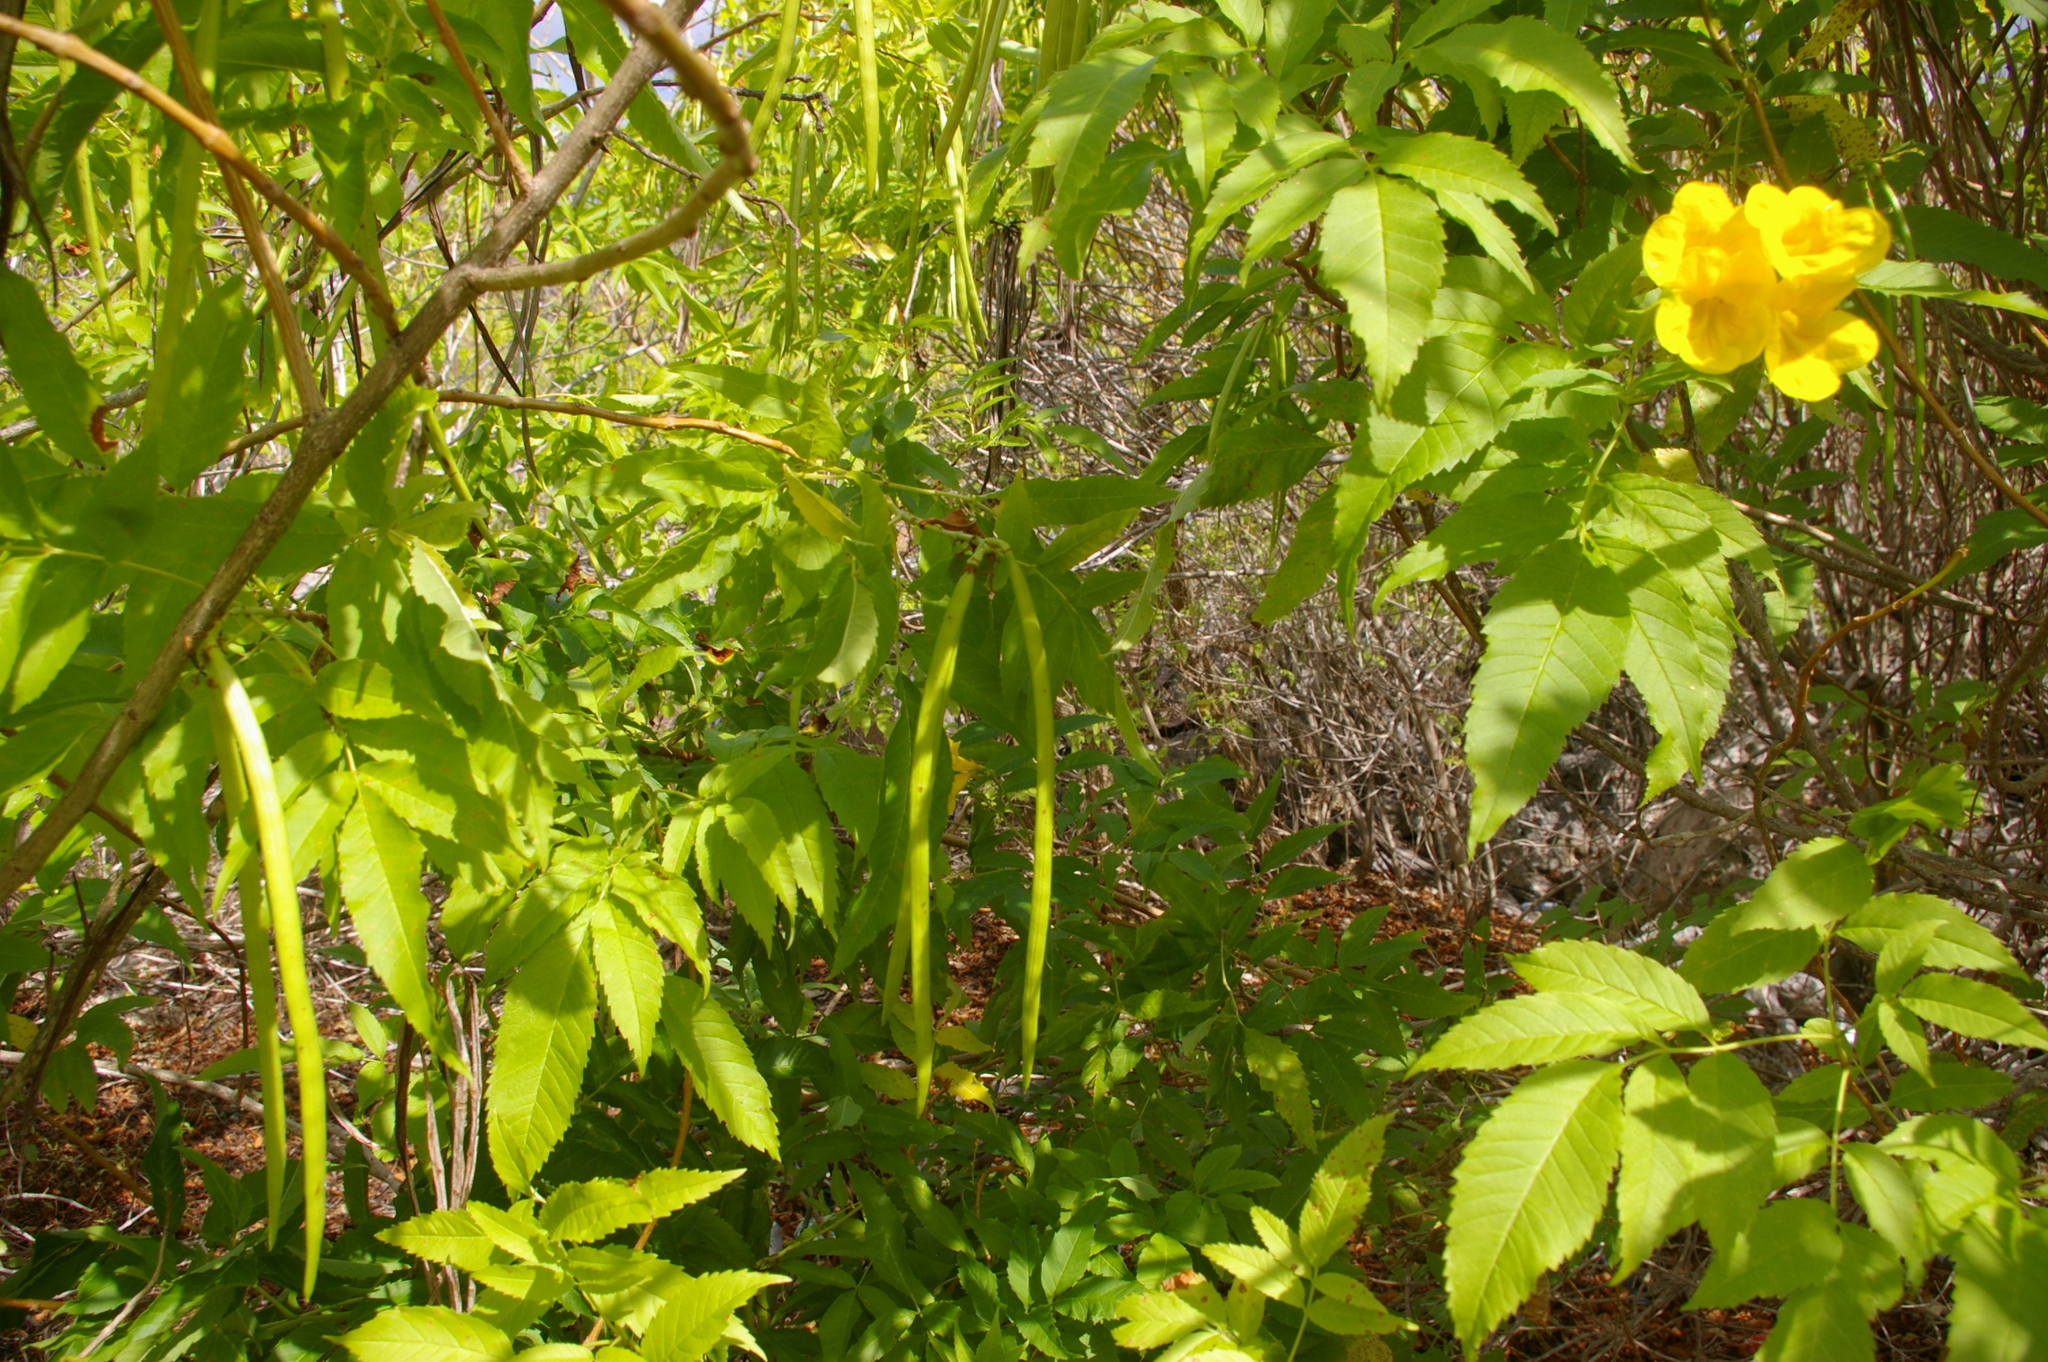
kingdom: Plantae
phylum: Tracheophyta
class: Magnoliopsida
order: Lamiales
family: Bignoniaceae
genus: Tecoma
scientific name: Tecoma stans
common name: Yellow trumpetbush
